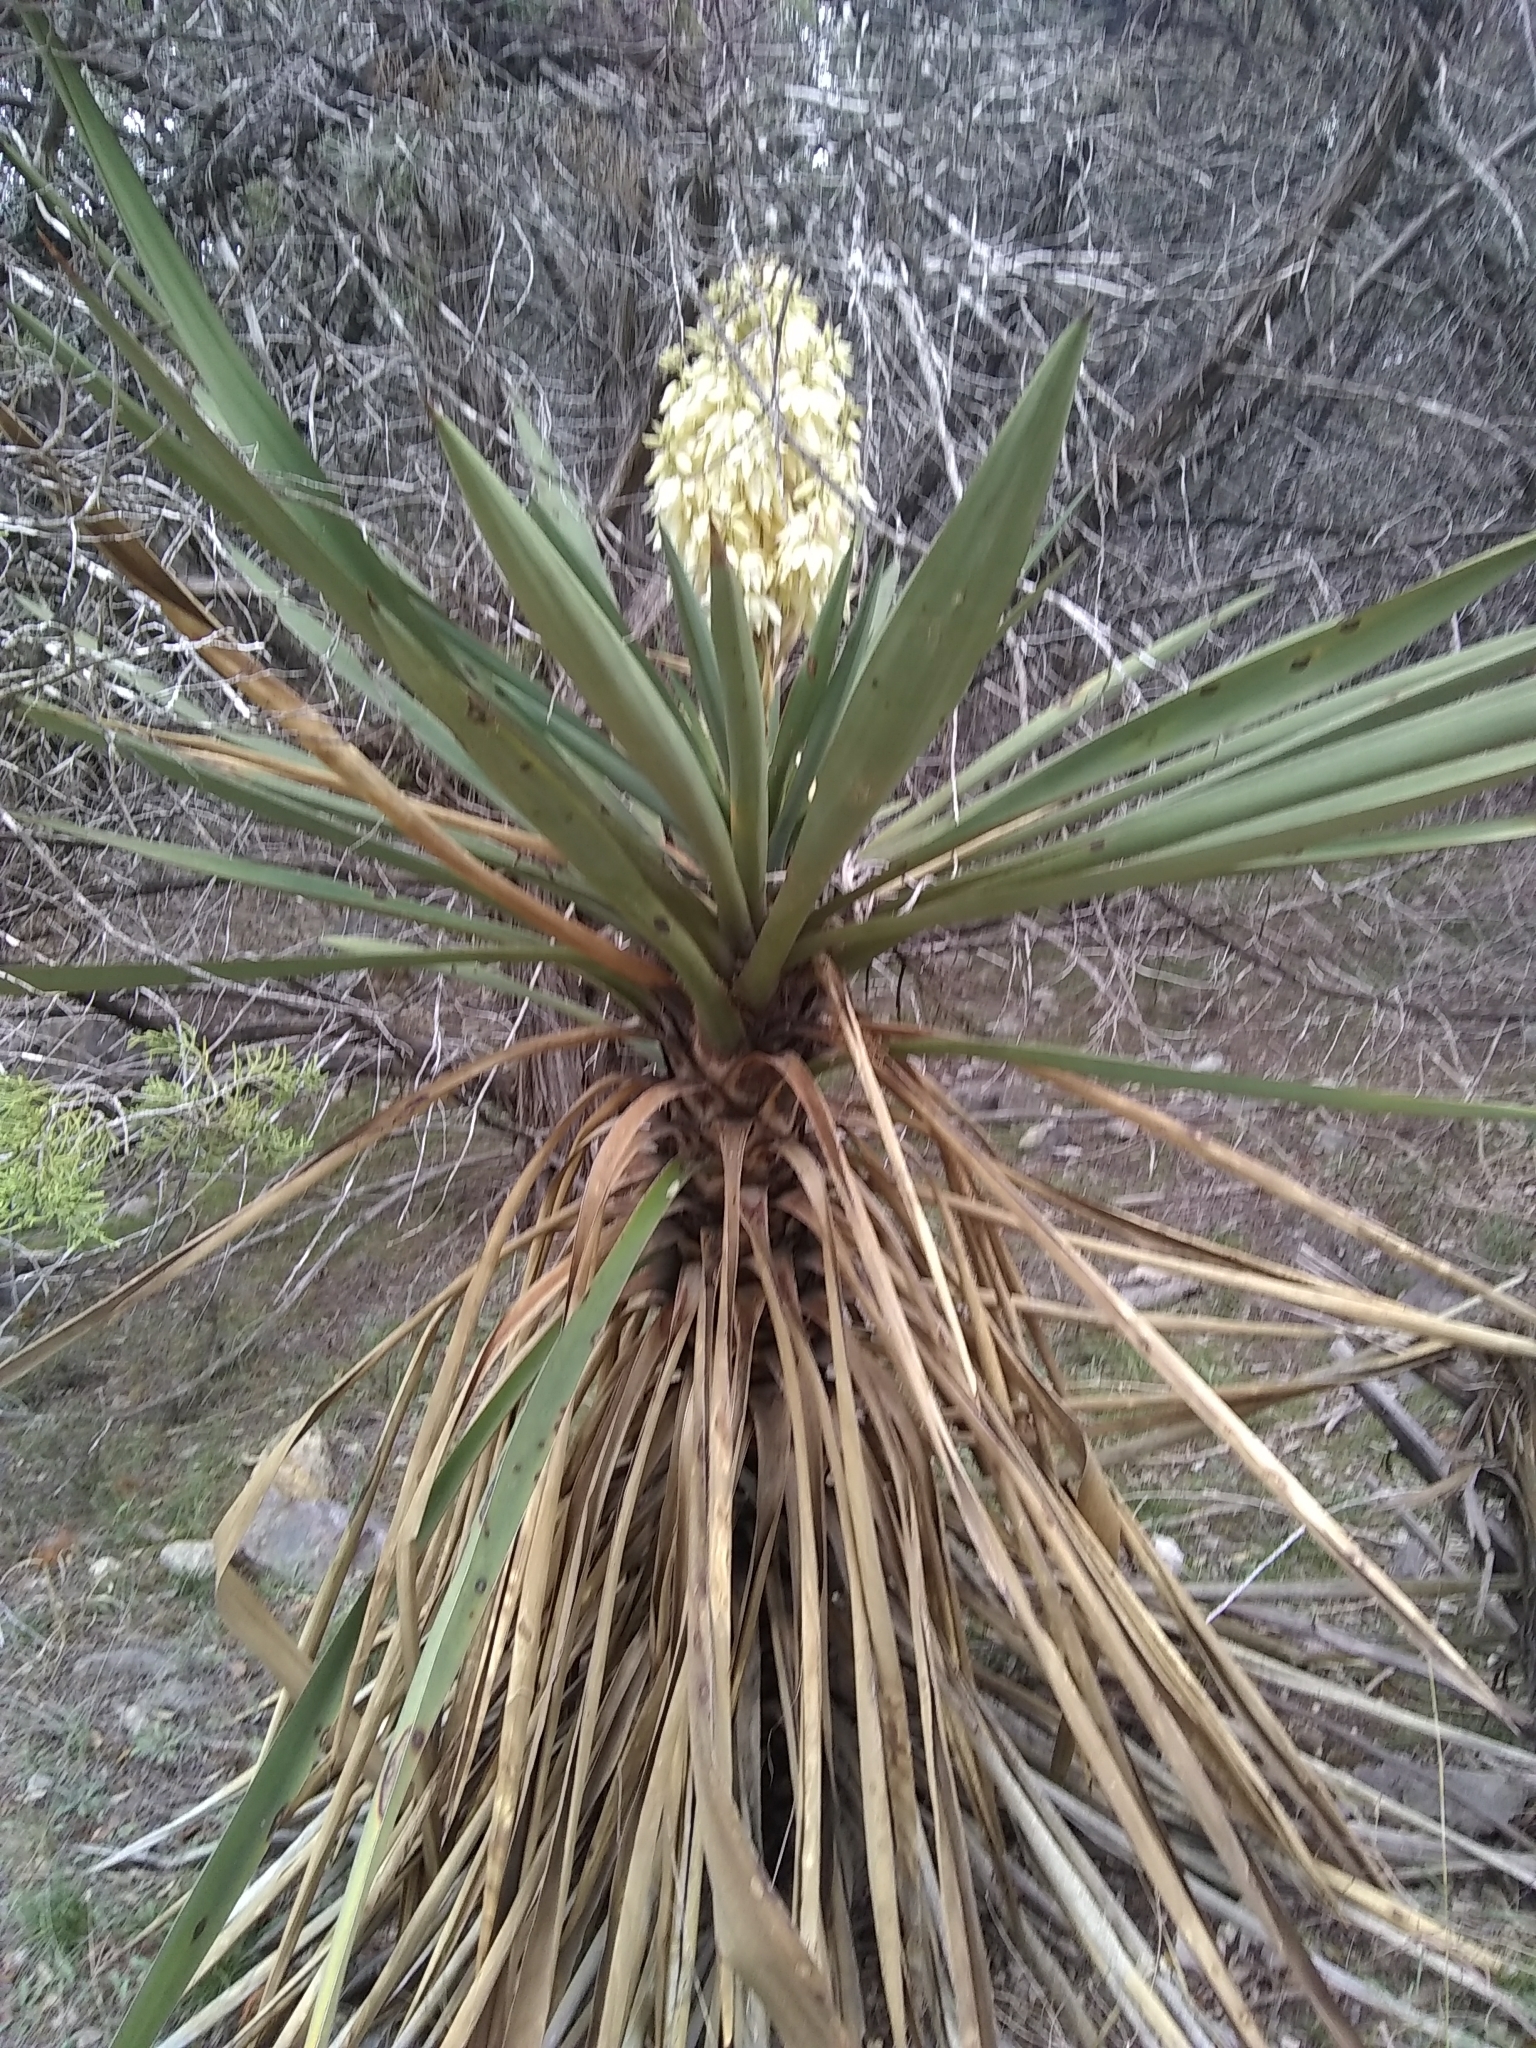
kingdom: Plantae
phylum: Tracheophyta
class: Liliopsida
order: Asparagales
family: Asparagaceae
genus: Yucca
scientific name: Yucca treculiana
